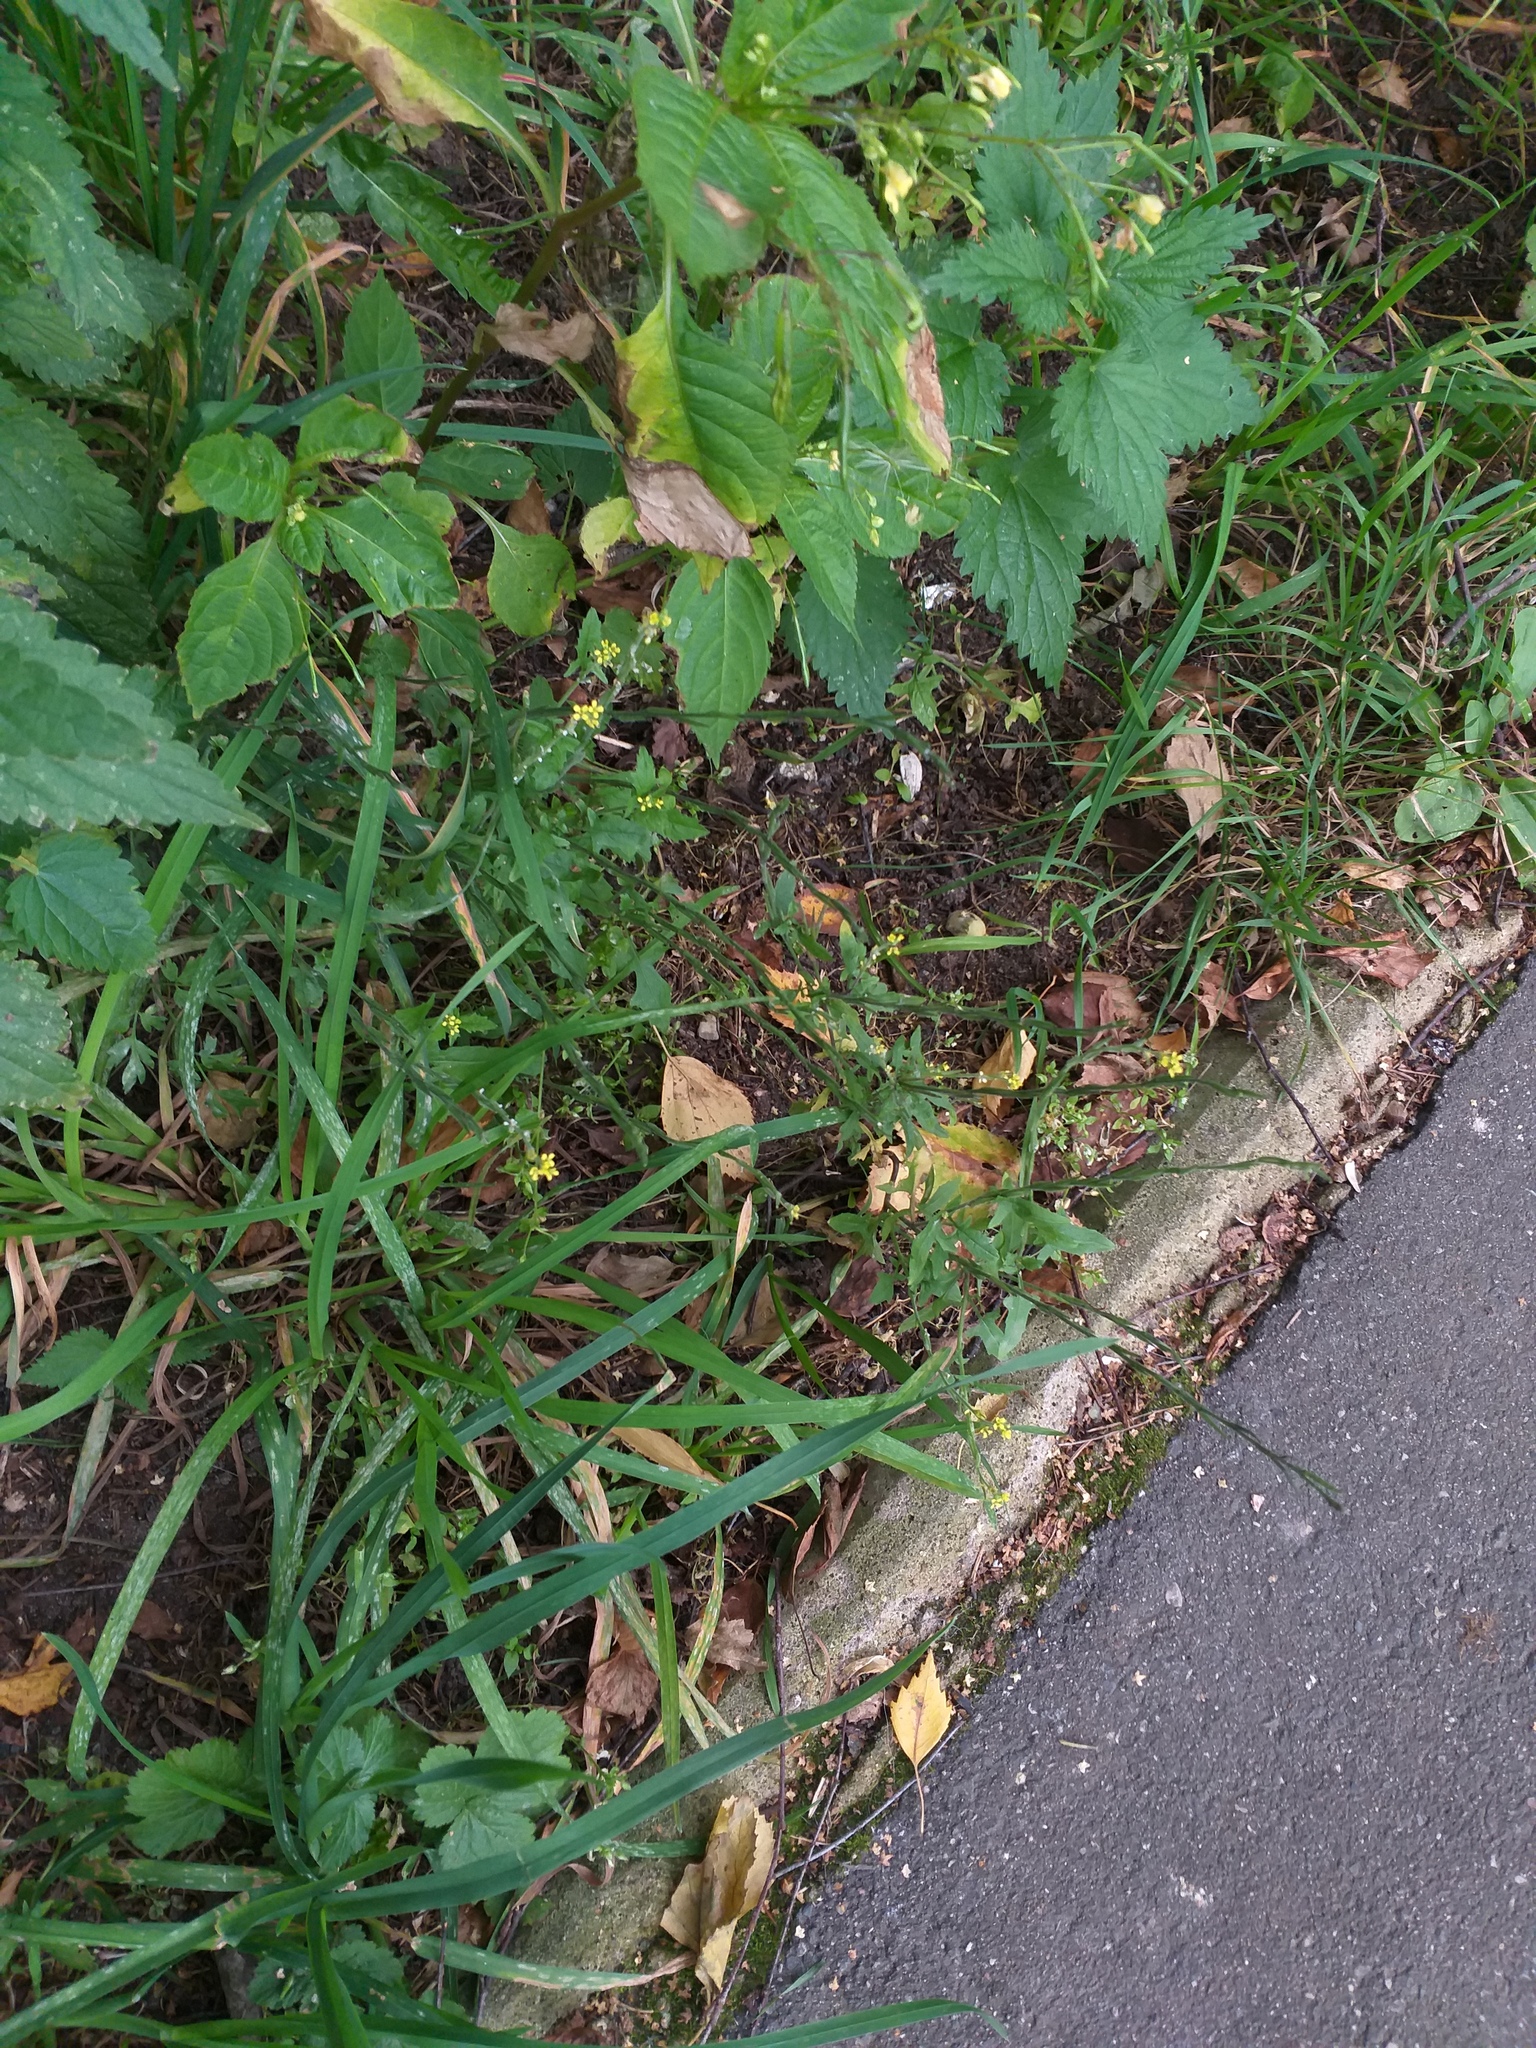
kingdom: Plantae
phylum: Tracheophyta
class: Magnoliopsida
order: Brassicales
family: Brassicaceae
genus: Sisymbrium
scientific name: Sisymbrium officinale
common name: Hedge mustard
